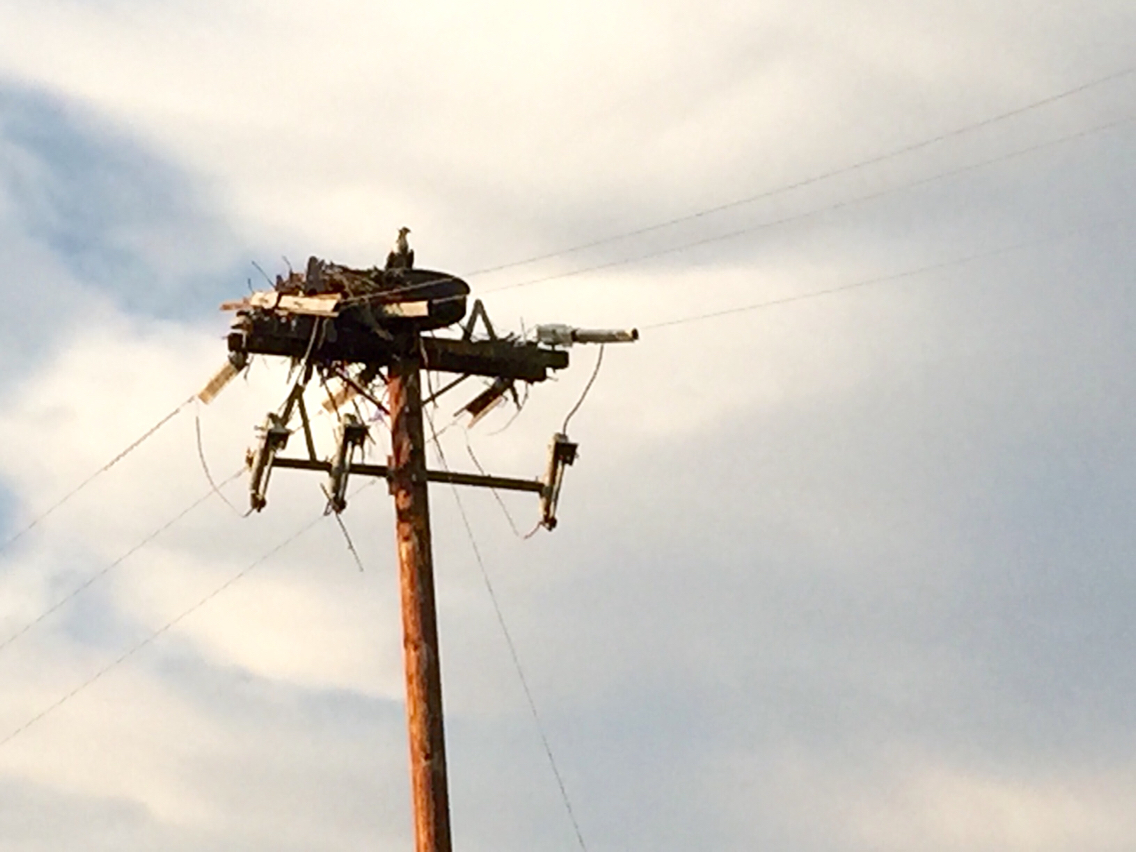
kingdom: Animalia
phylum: Chordata
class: Aves
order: Accipitriformes
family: Pandionidae
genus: Pandion
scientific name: Pandion haliaetus
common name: Osprey
